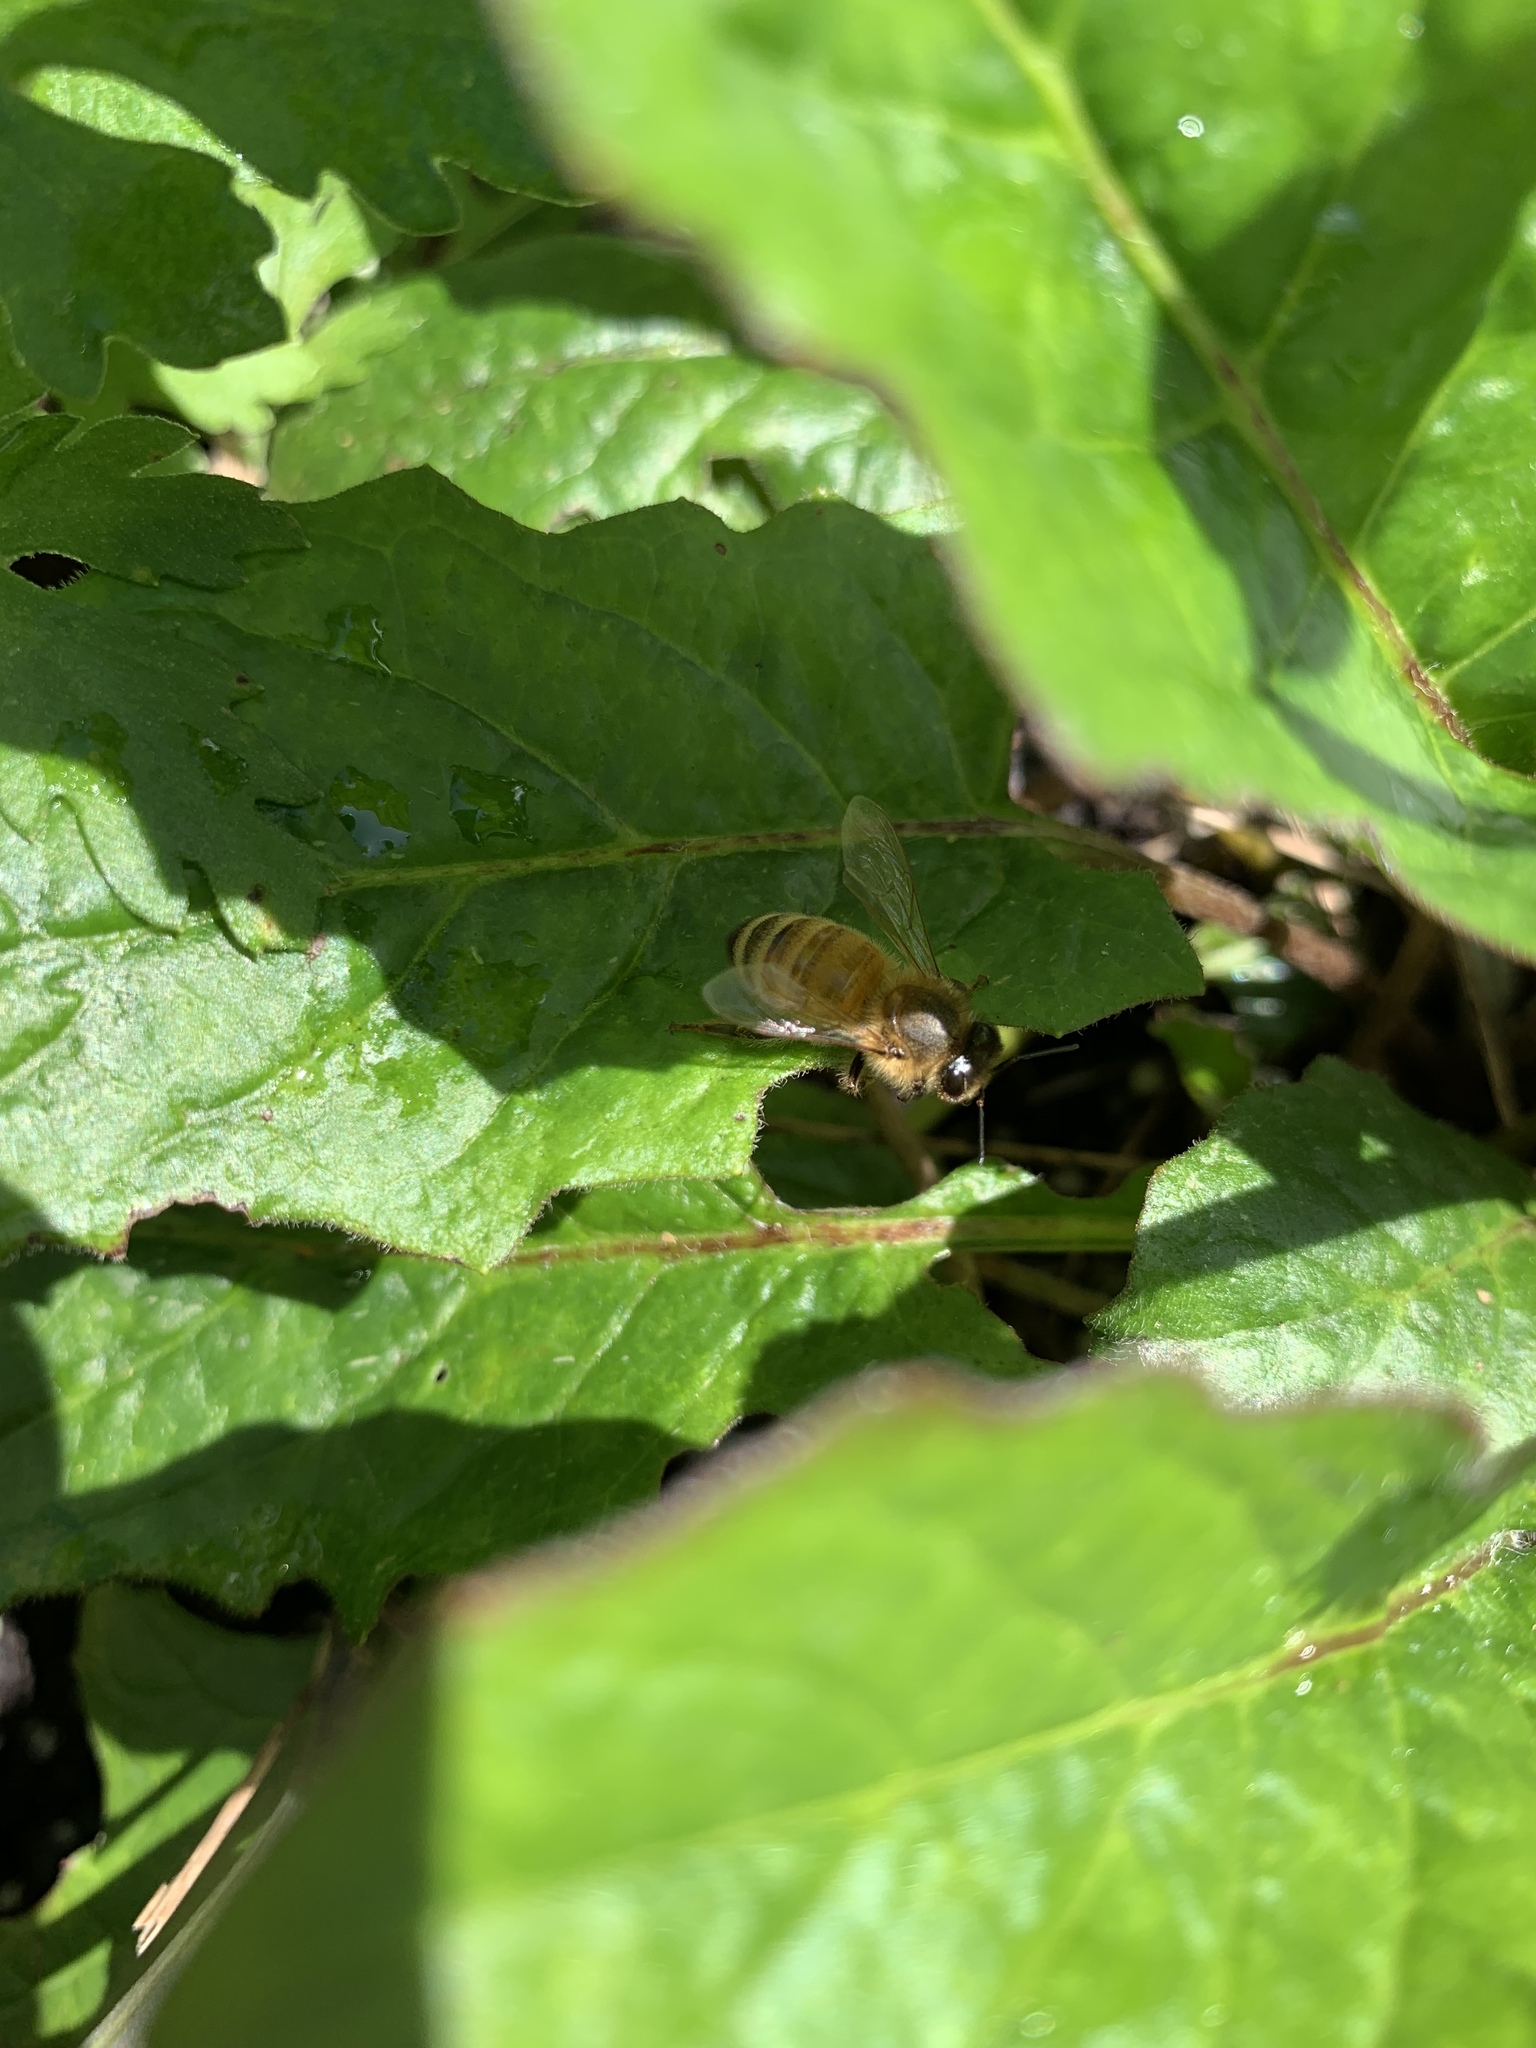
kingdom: Animalia
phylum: Arthropoda
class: Insecta
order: Hymenoptera
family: Apidae
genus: Apis
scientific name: Apis mellifera
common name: Honey bee
